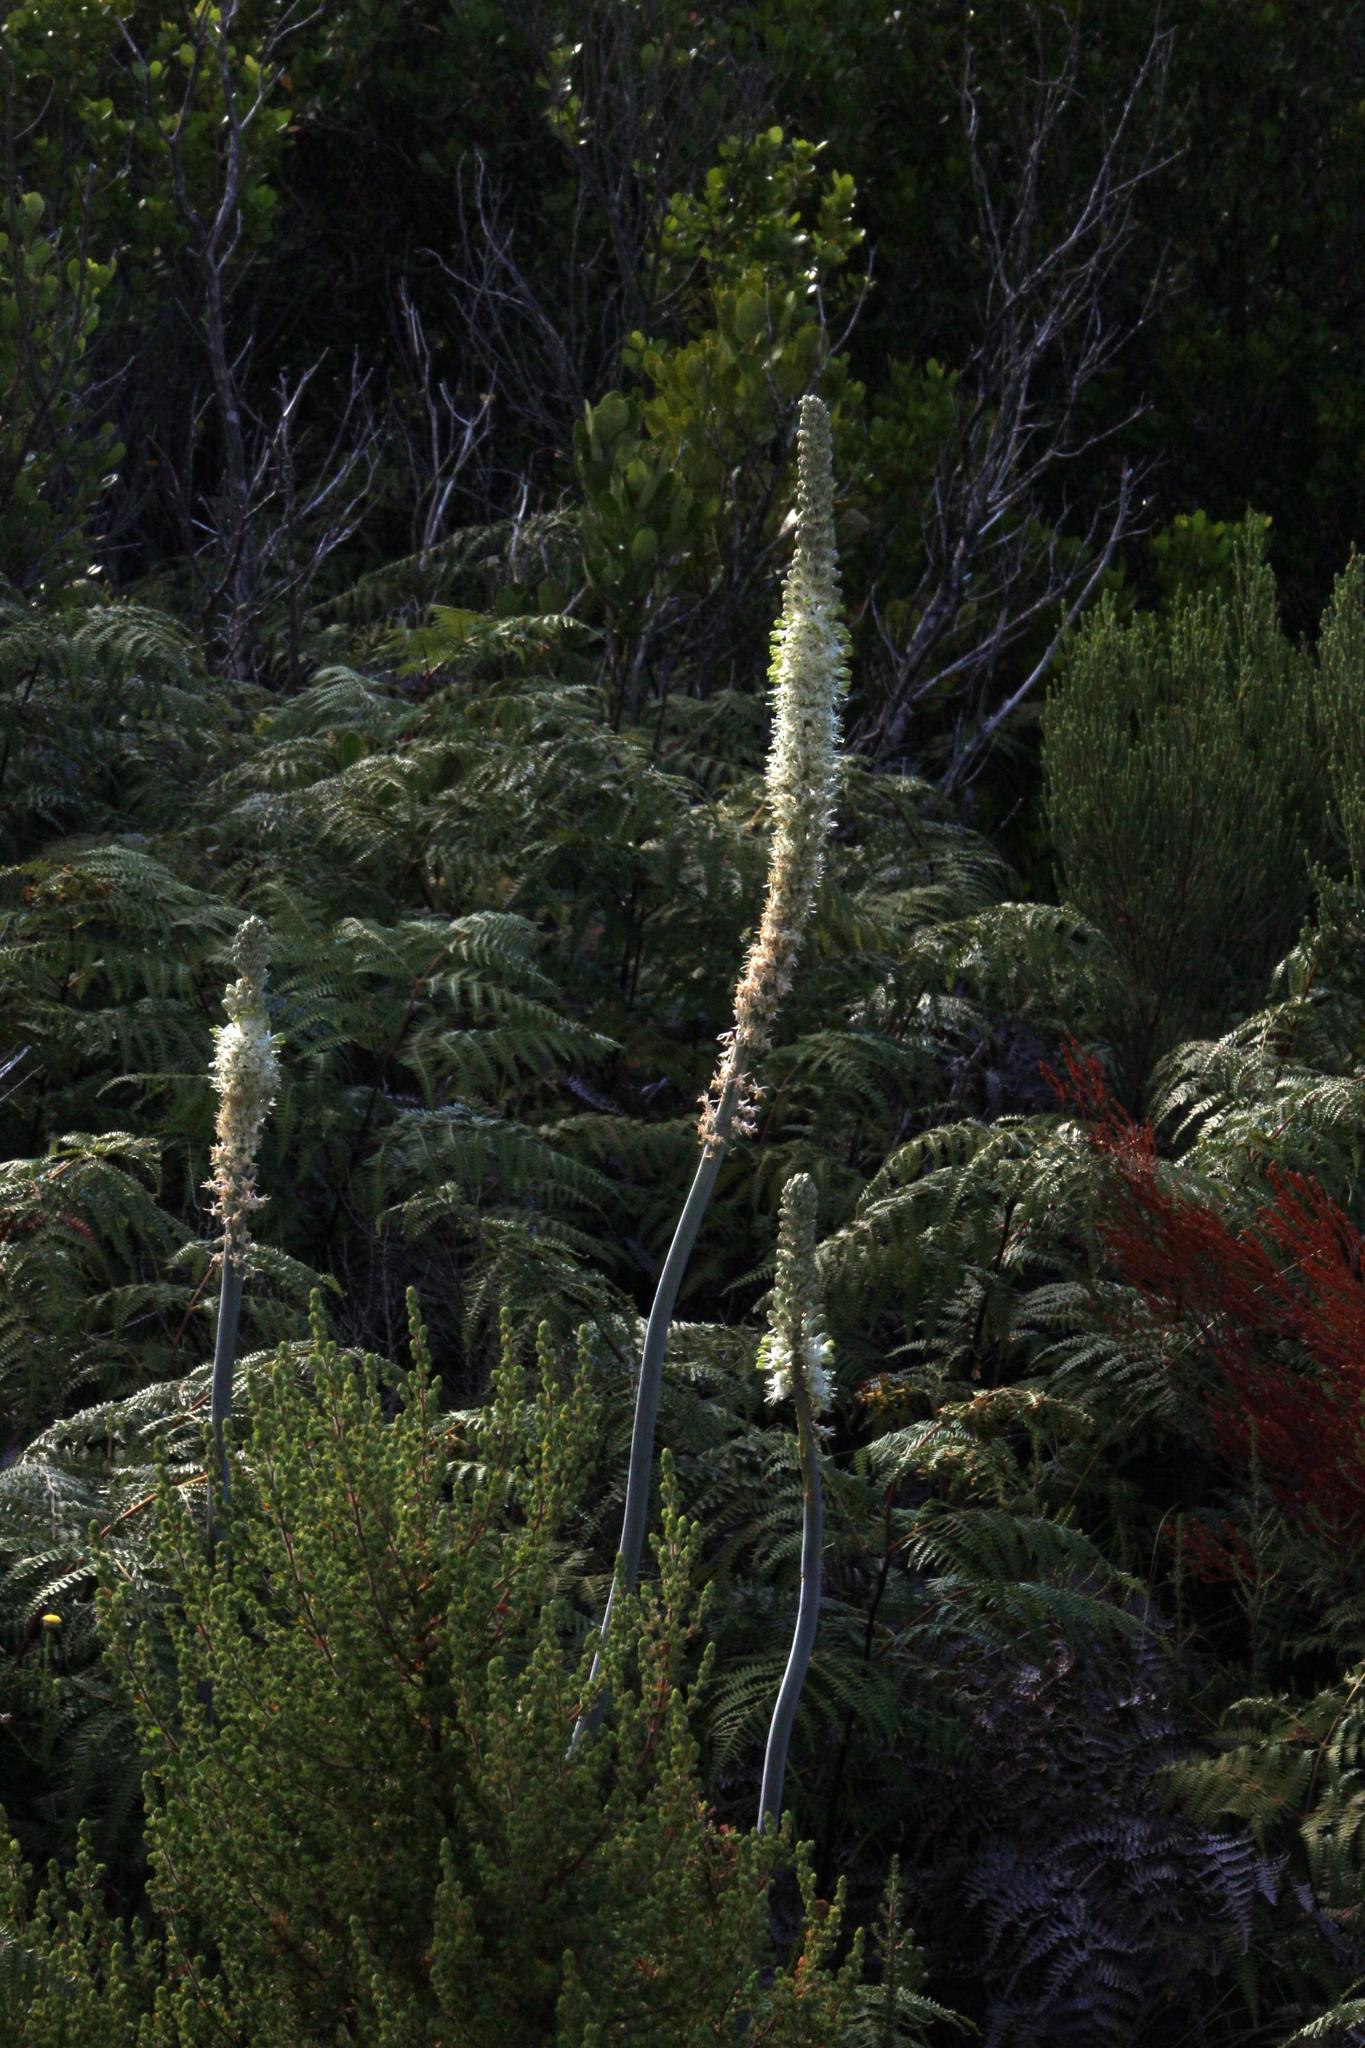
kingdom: Plantae
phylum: Tracheophyta
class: Liliopsida
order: Asparagales
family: Asparagaceae
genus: Drimia
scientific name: Drimia capensis
